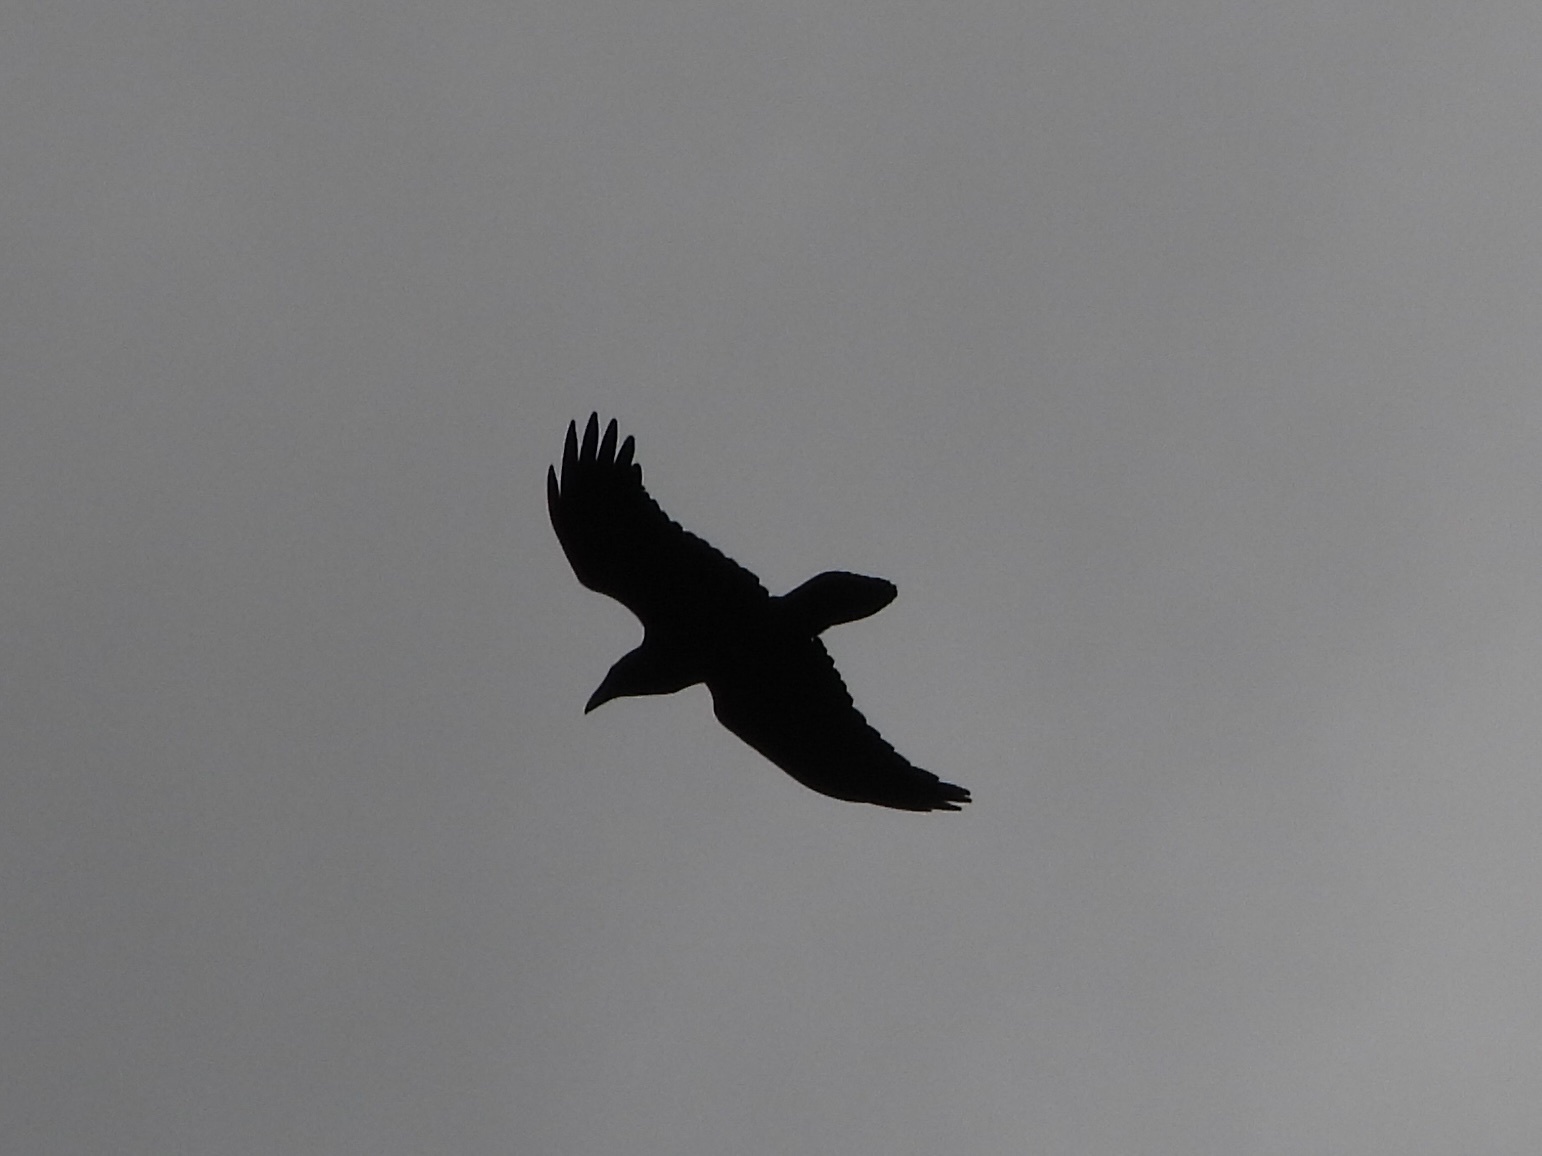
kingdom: Animalia
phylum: Chordata
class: Aves
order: Passeriformes
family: Corvidae
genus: Corvus
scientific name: Corvus corax
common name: Common raven
